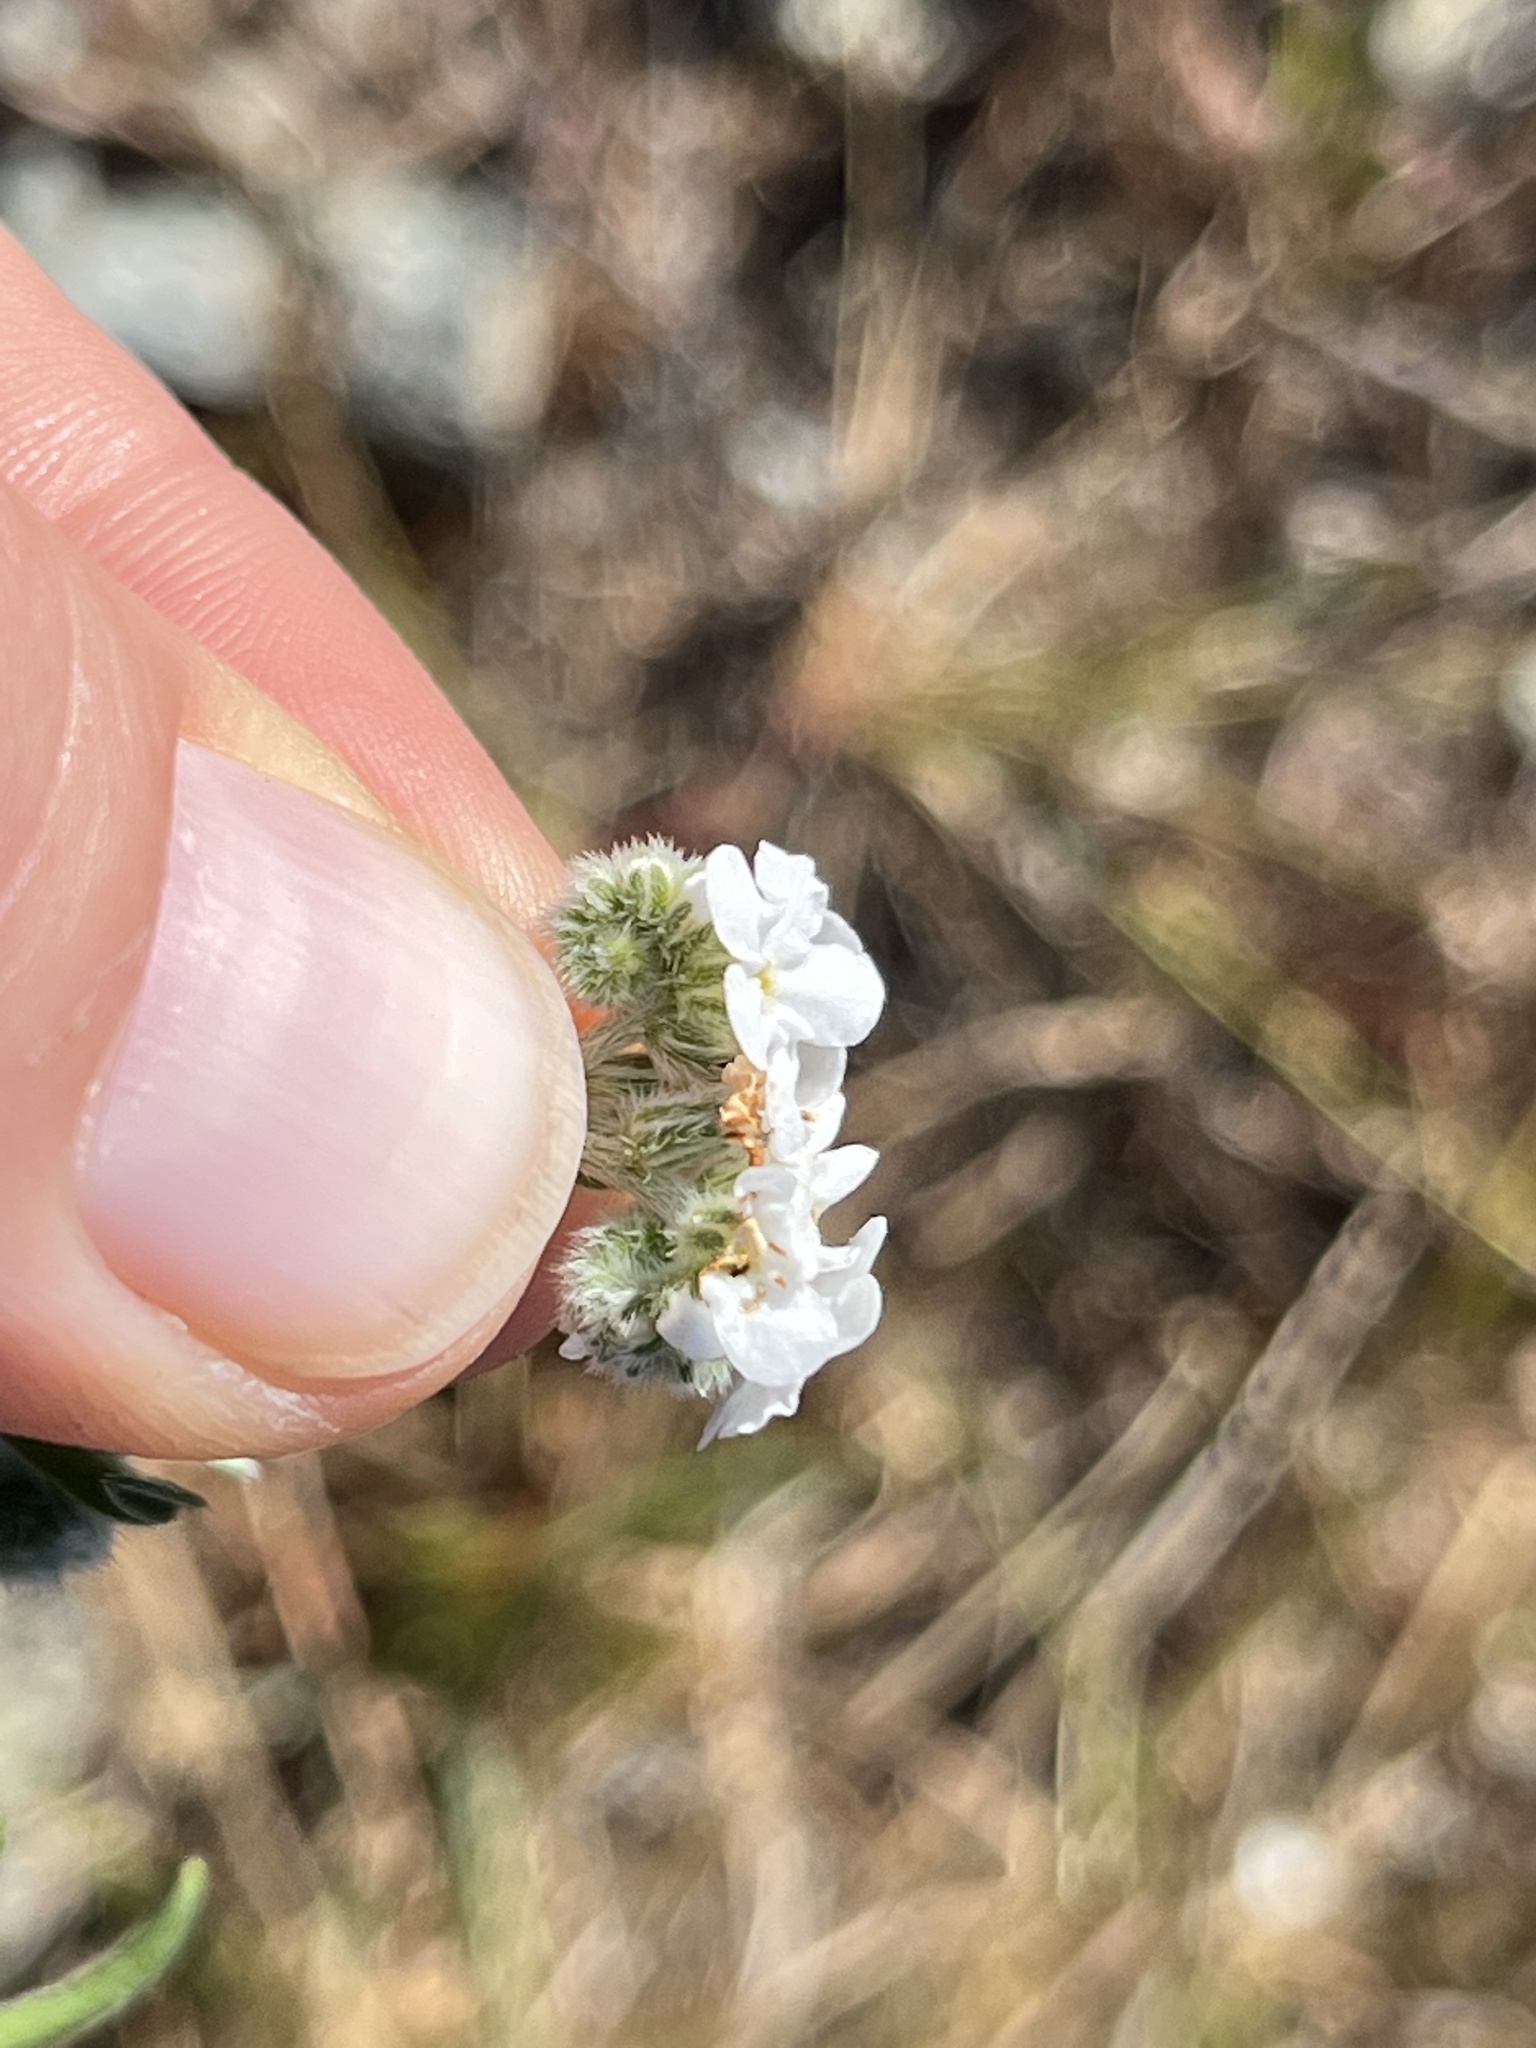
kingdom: Plantae
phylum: Tracheophyta
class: Magnoliopsida
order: Boraginales
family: Boraginaceae
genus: Cryptantha
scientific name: Cryptantha clevelandii
